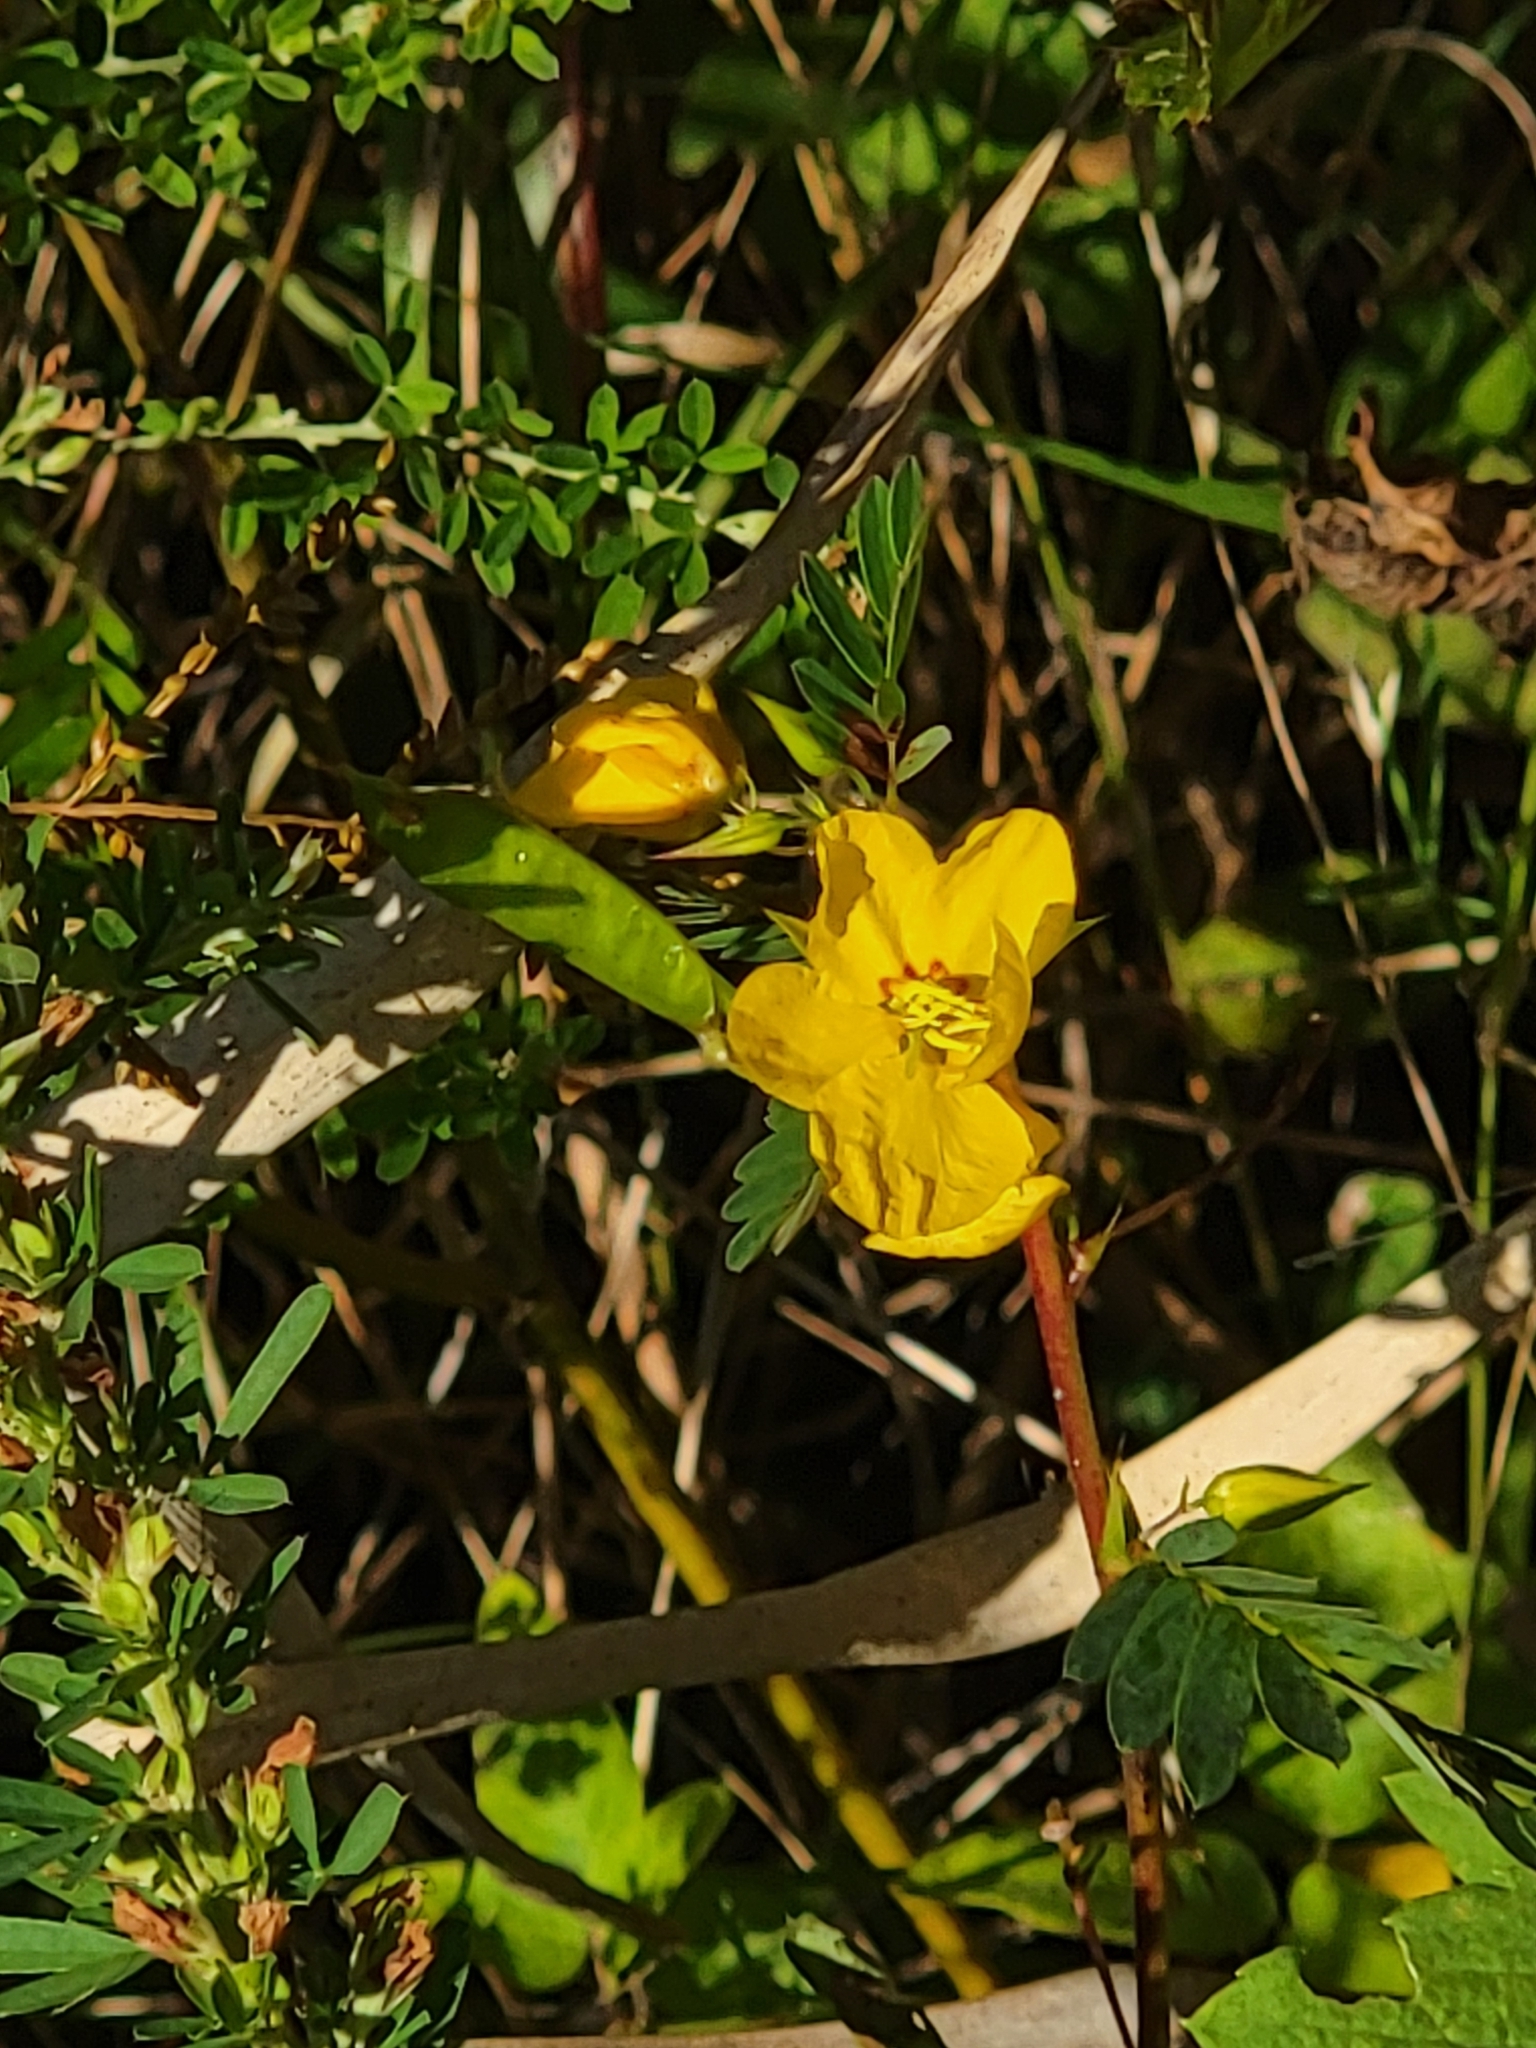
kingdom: Plantae
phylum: Tracheophyta
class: Magnoliopsida
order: Fabales
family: Fabaceae
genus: Chamaecrista
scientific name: Chamaecrista fasciculata
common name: Golden cassia
